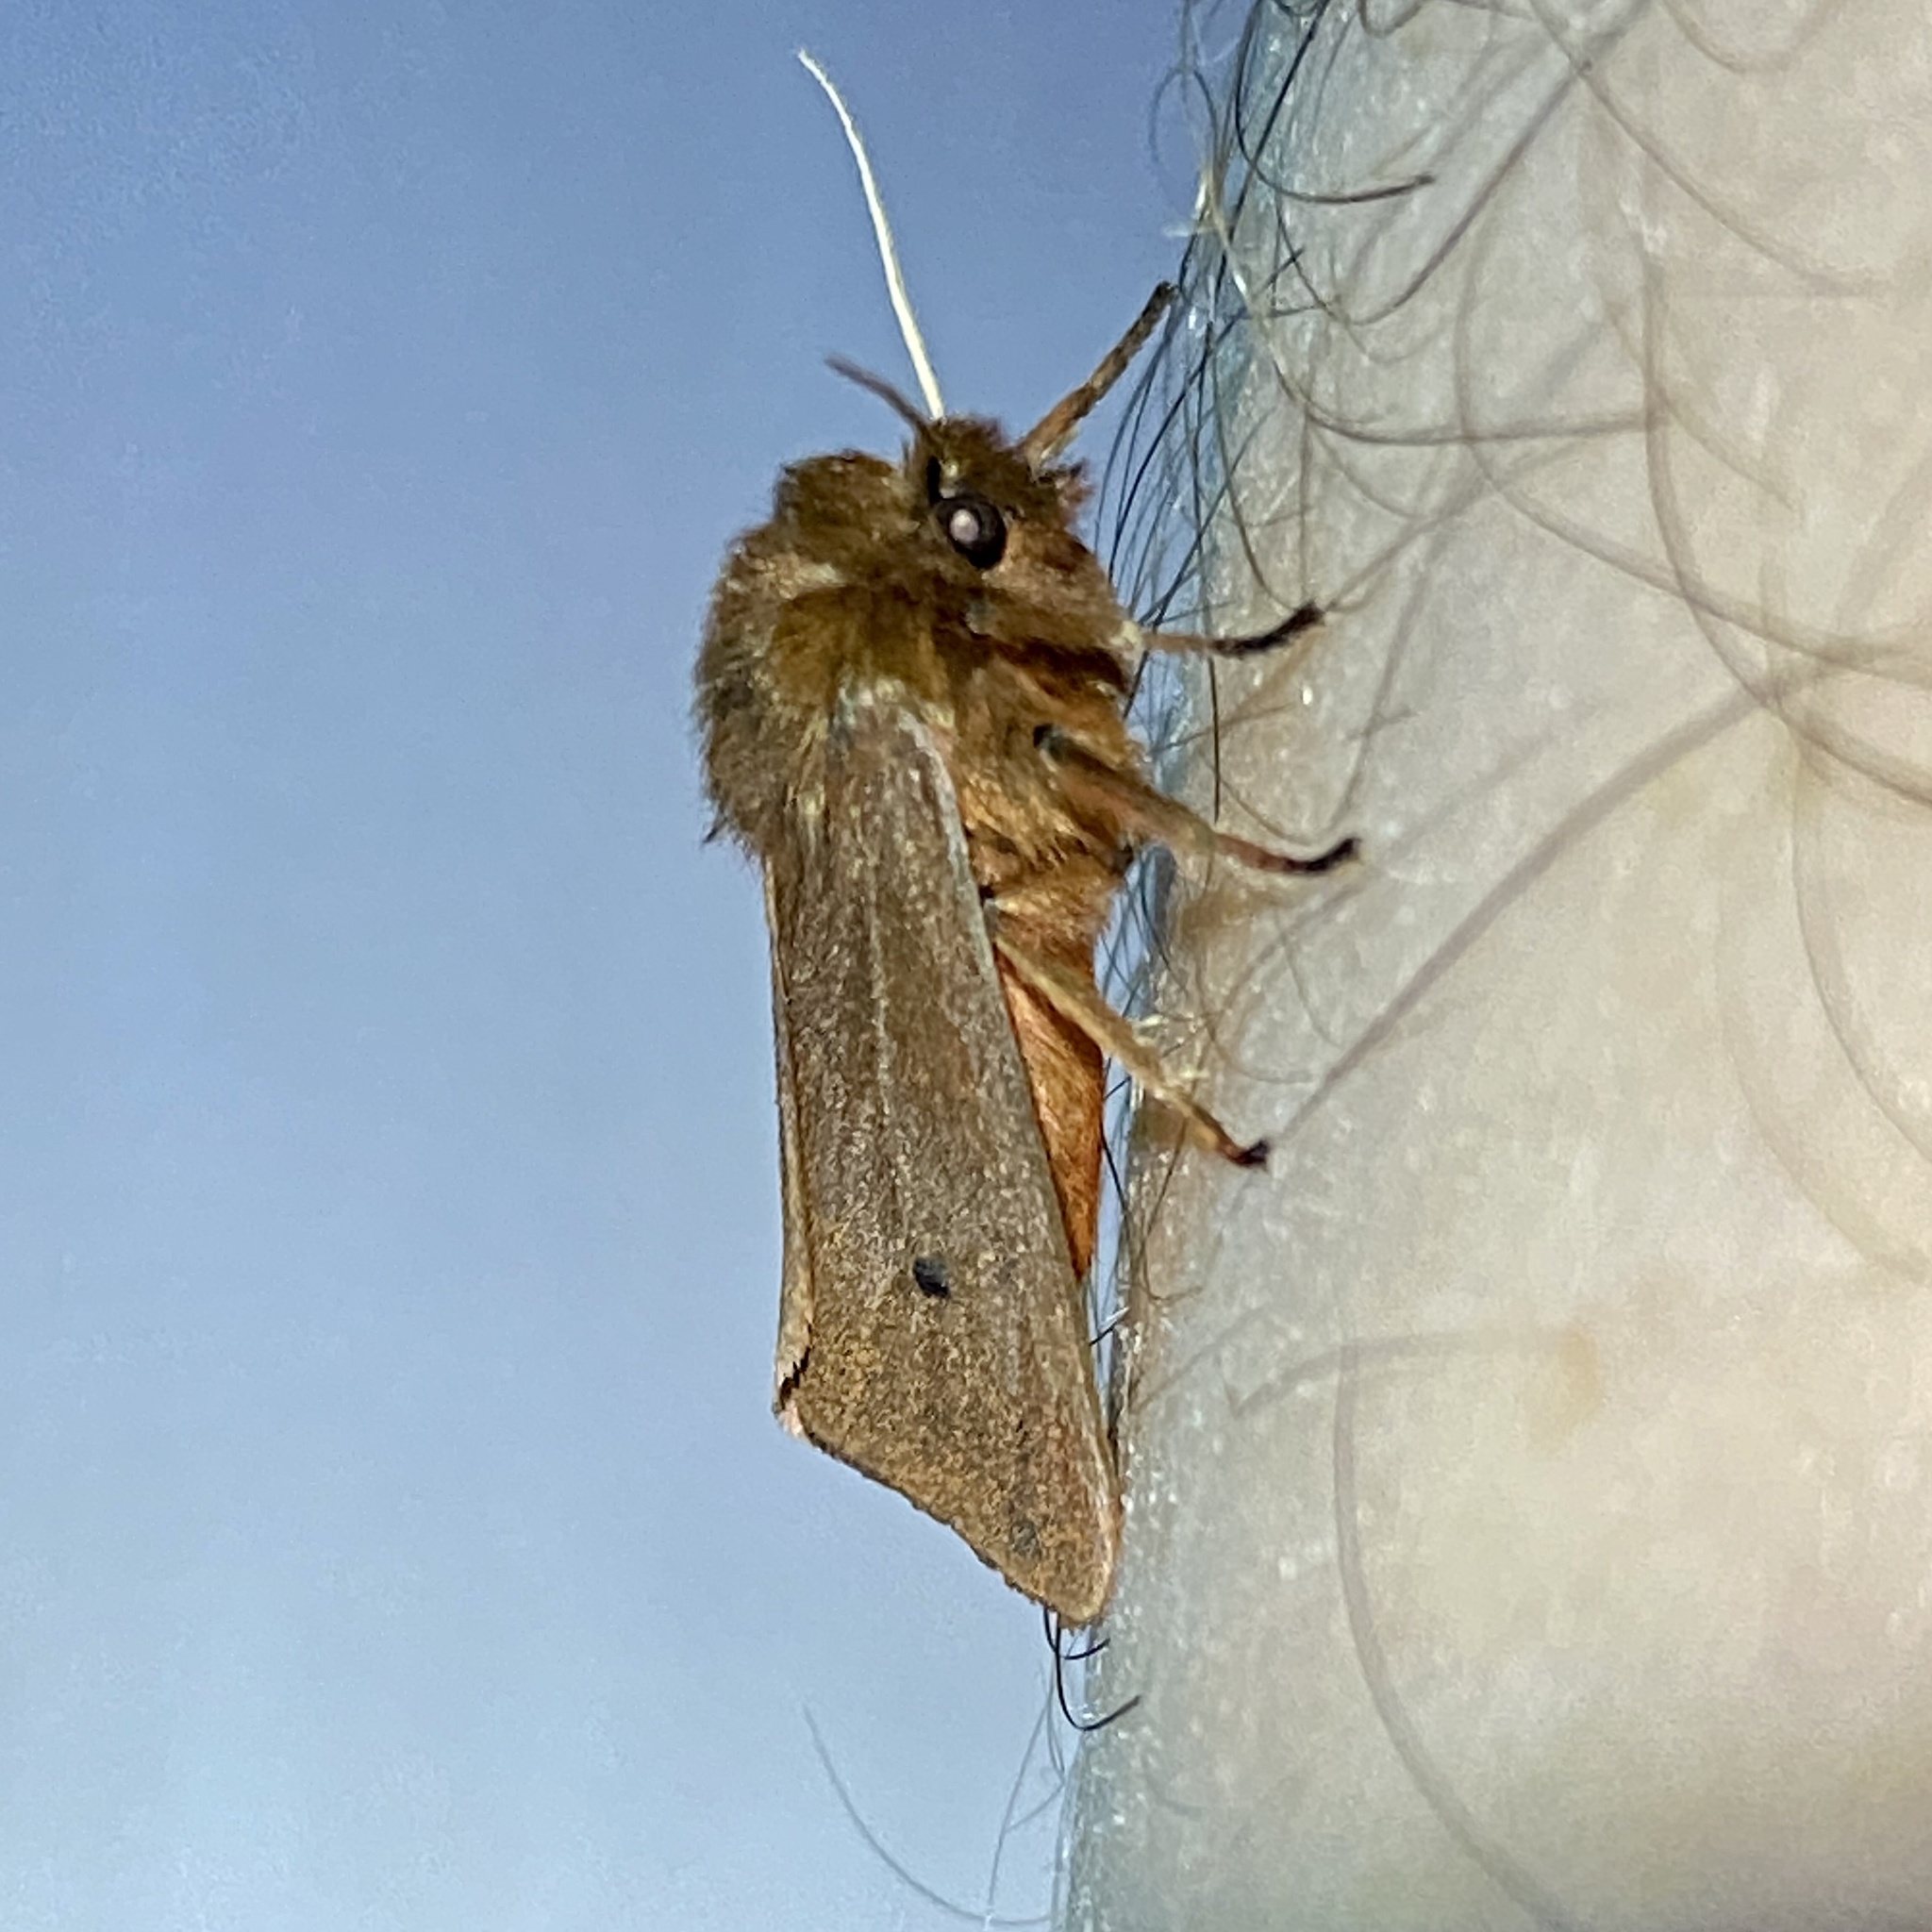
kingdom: Animalia
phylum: Arthropoda
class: Insecta
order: Lepidoptera
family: Erebidae
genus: Phragmatobia
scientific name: Phragmatobia fuliginosa
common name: Ruby tiger
